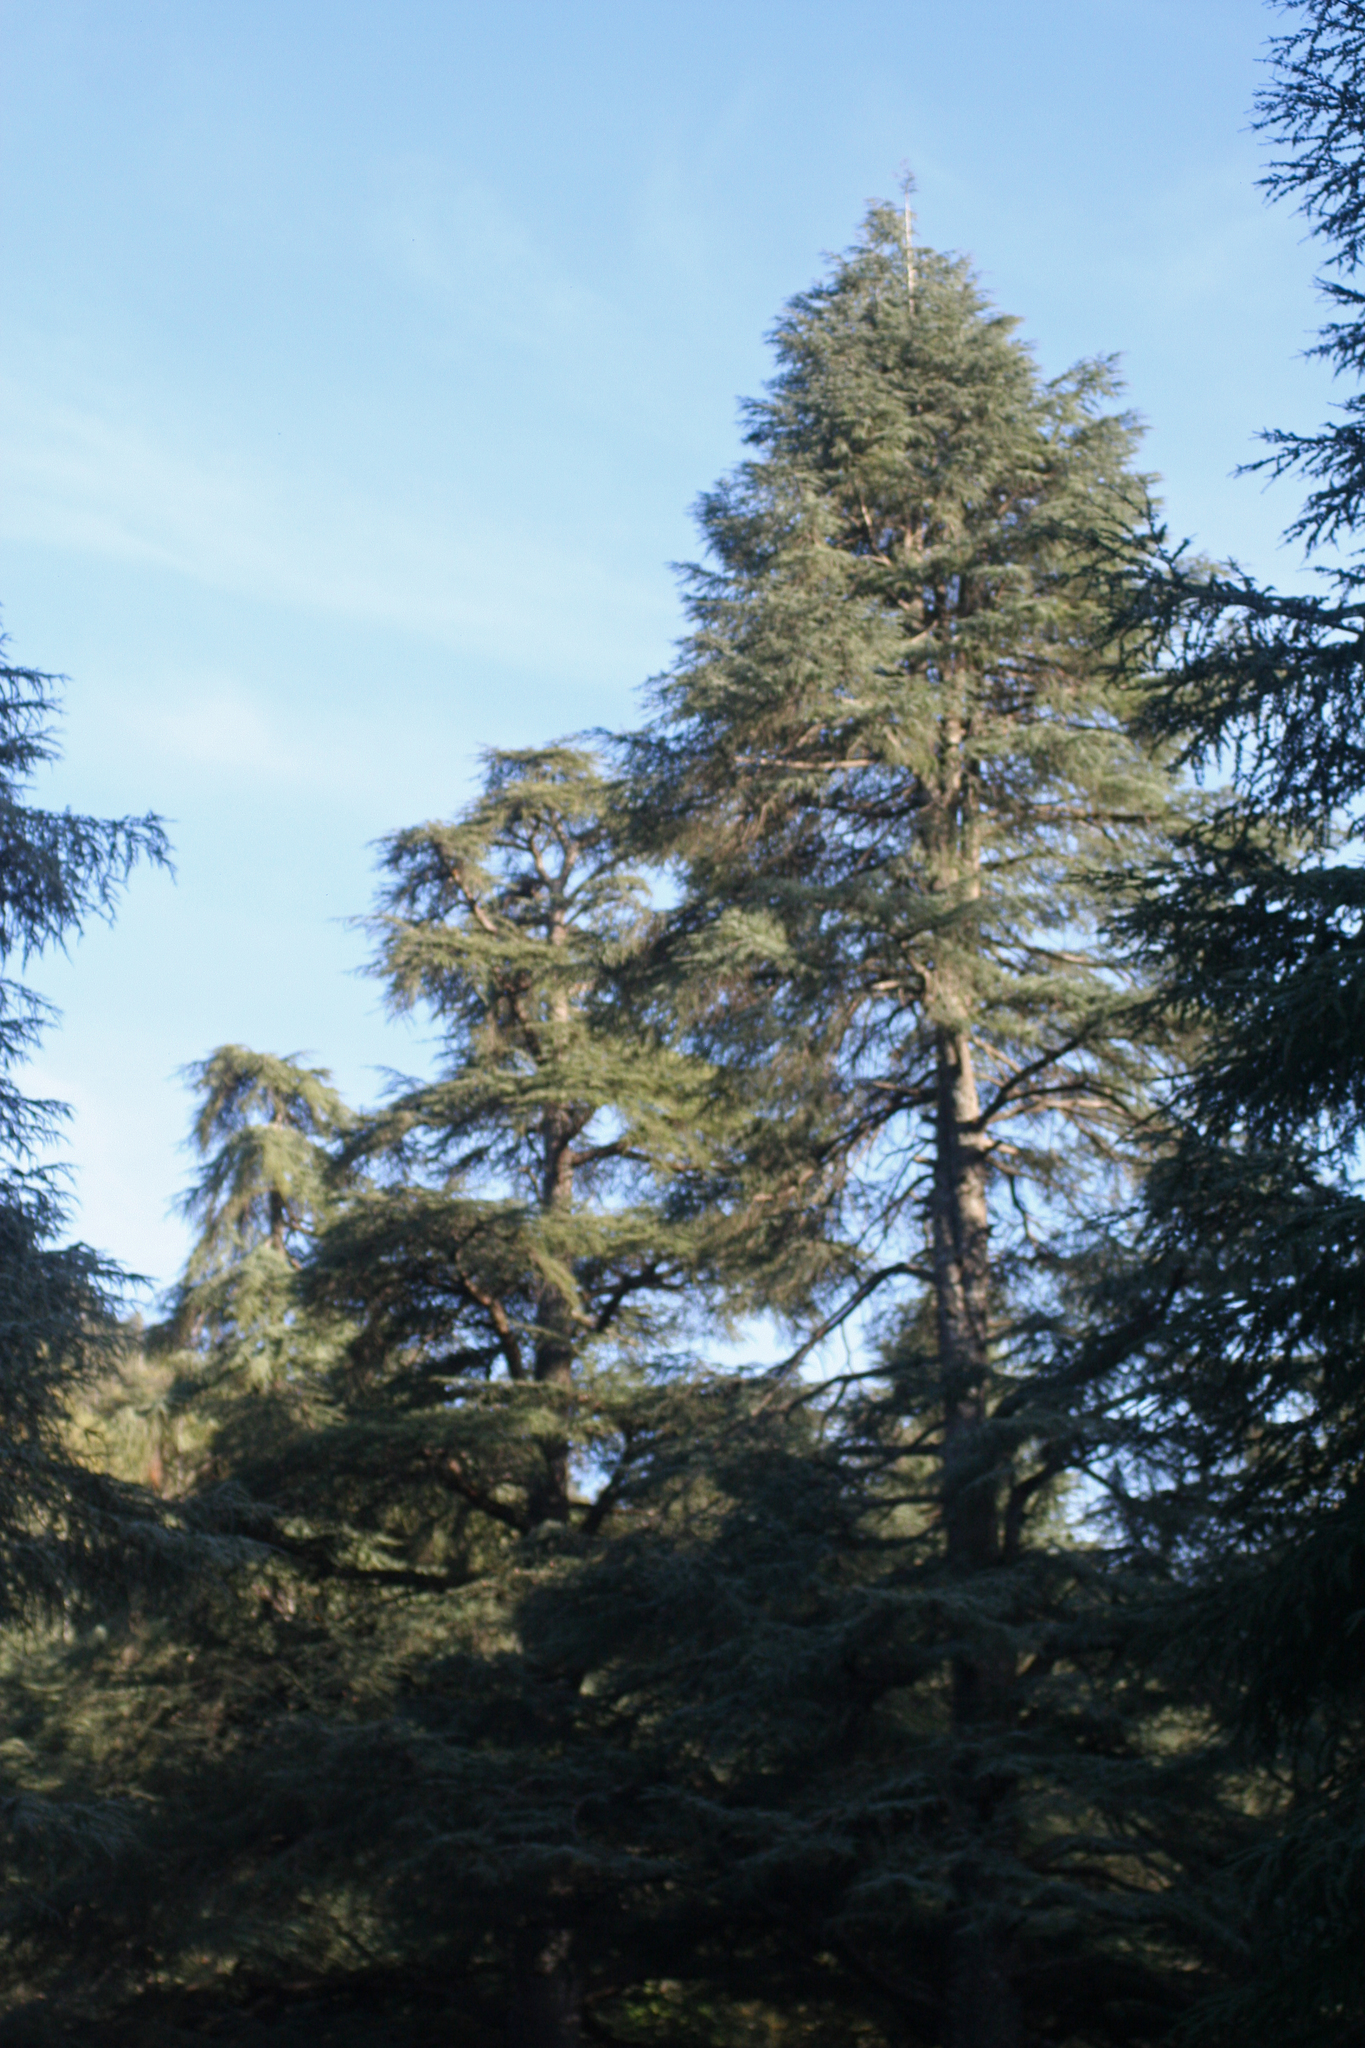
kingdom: Plantae
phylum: Tracheophyta
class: Pinopsida
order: Pinales
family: Pinaceae
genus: Cedrus
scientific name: Cedrus atlantica
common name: Atlas cedar
